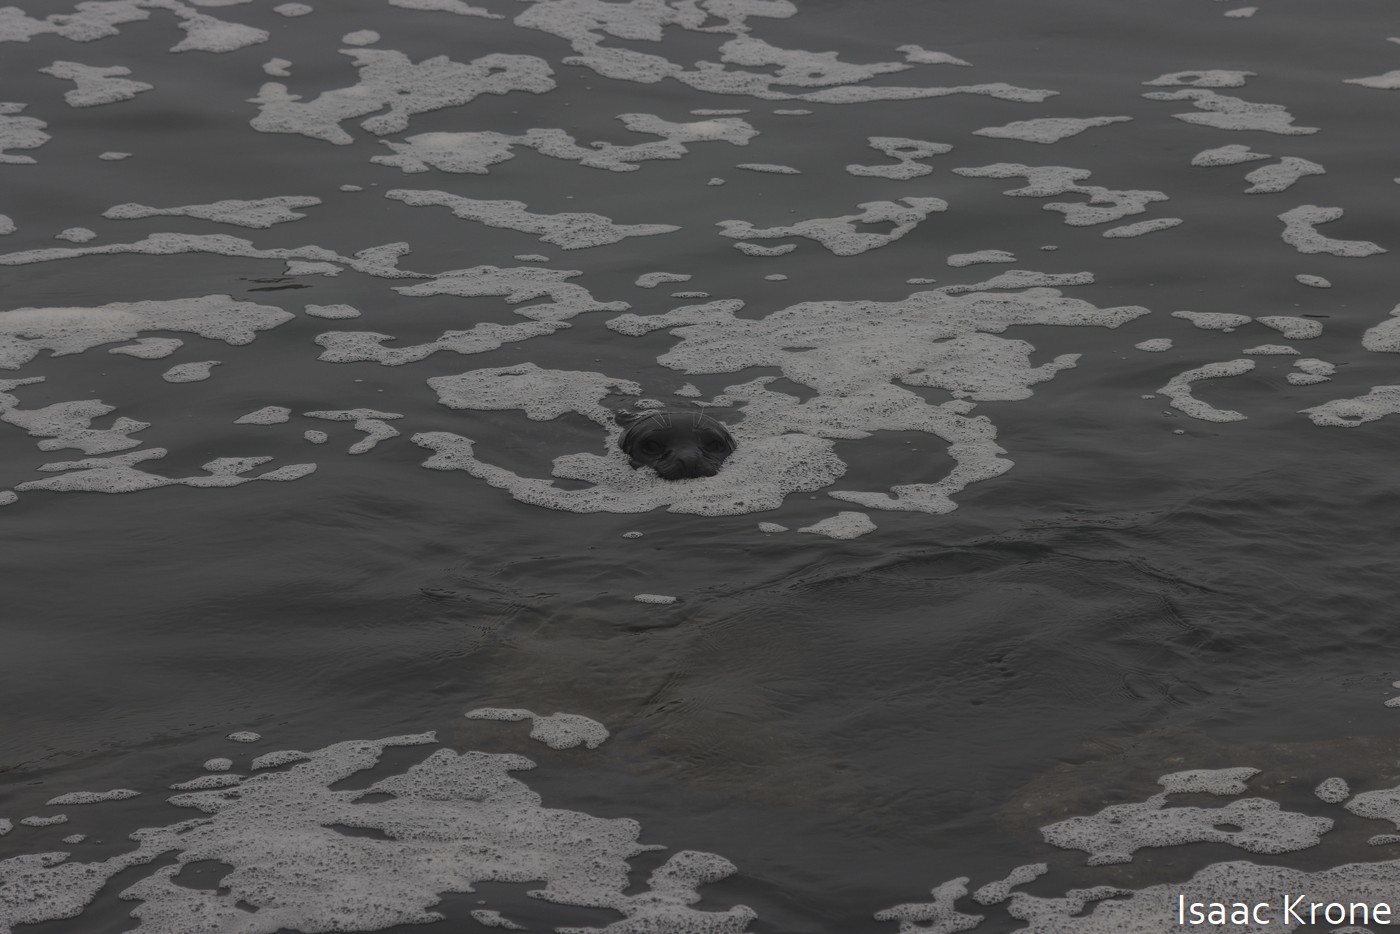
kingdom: Animalia
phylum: Chordata
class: Mammalia
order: Carnivora
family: Phocidae
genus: Phoca
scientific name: Phoca vitulina
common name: Harbor seal
